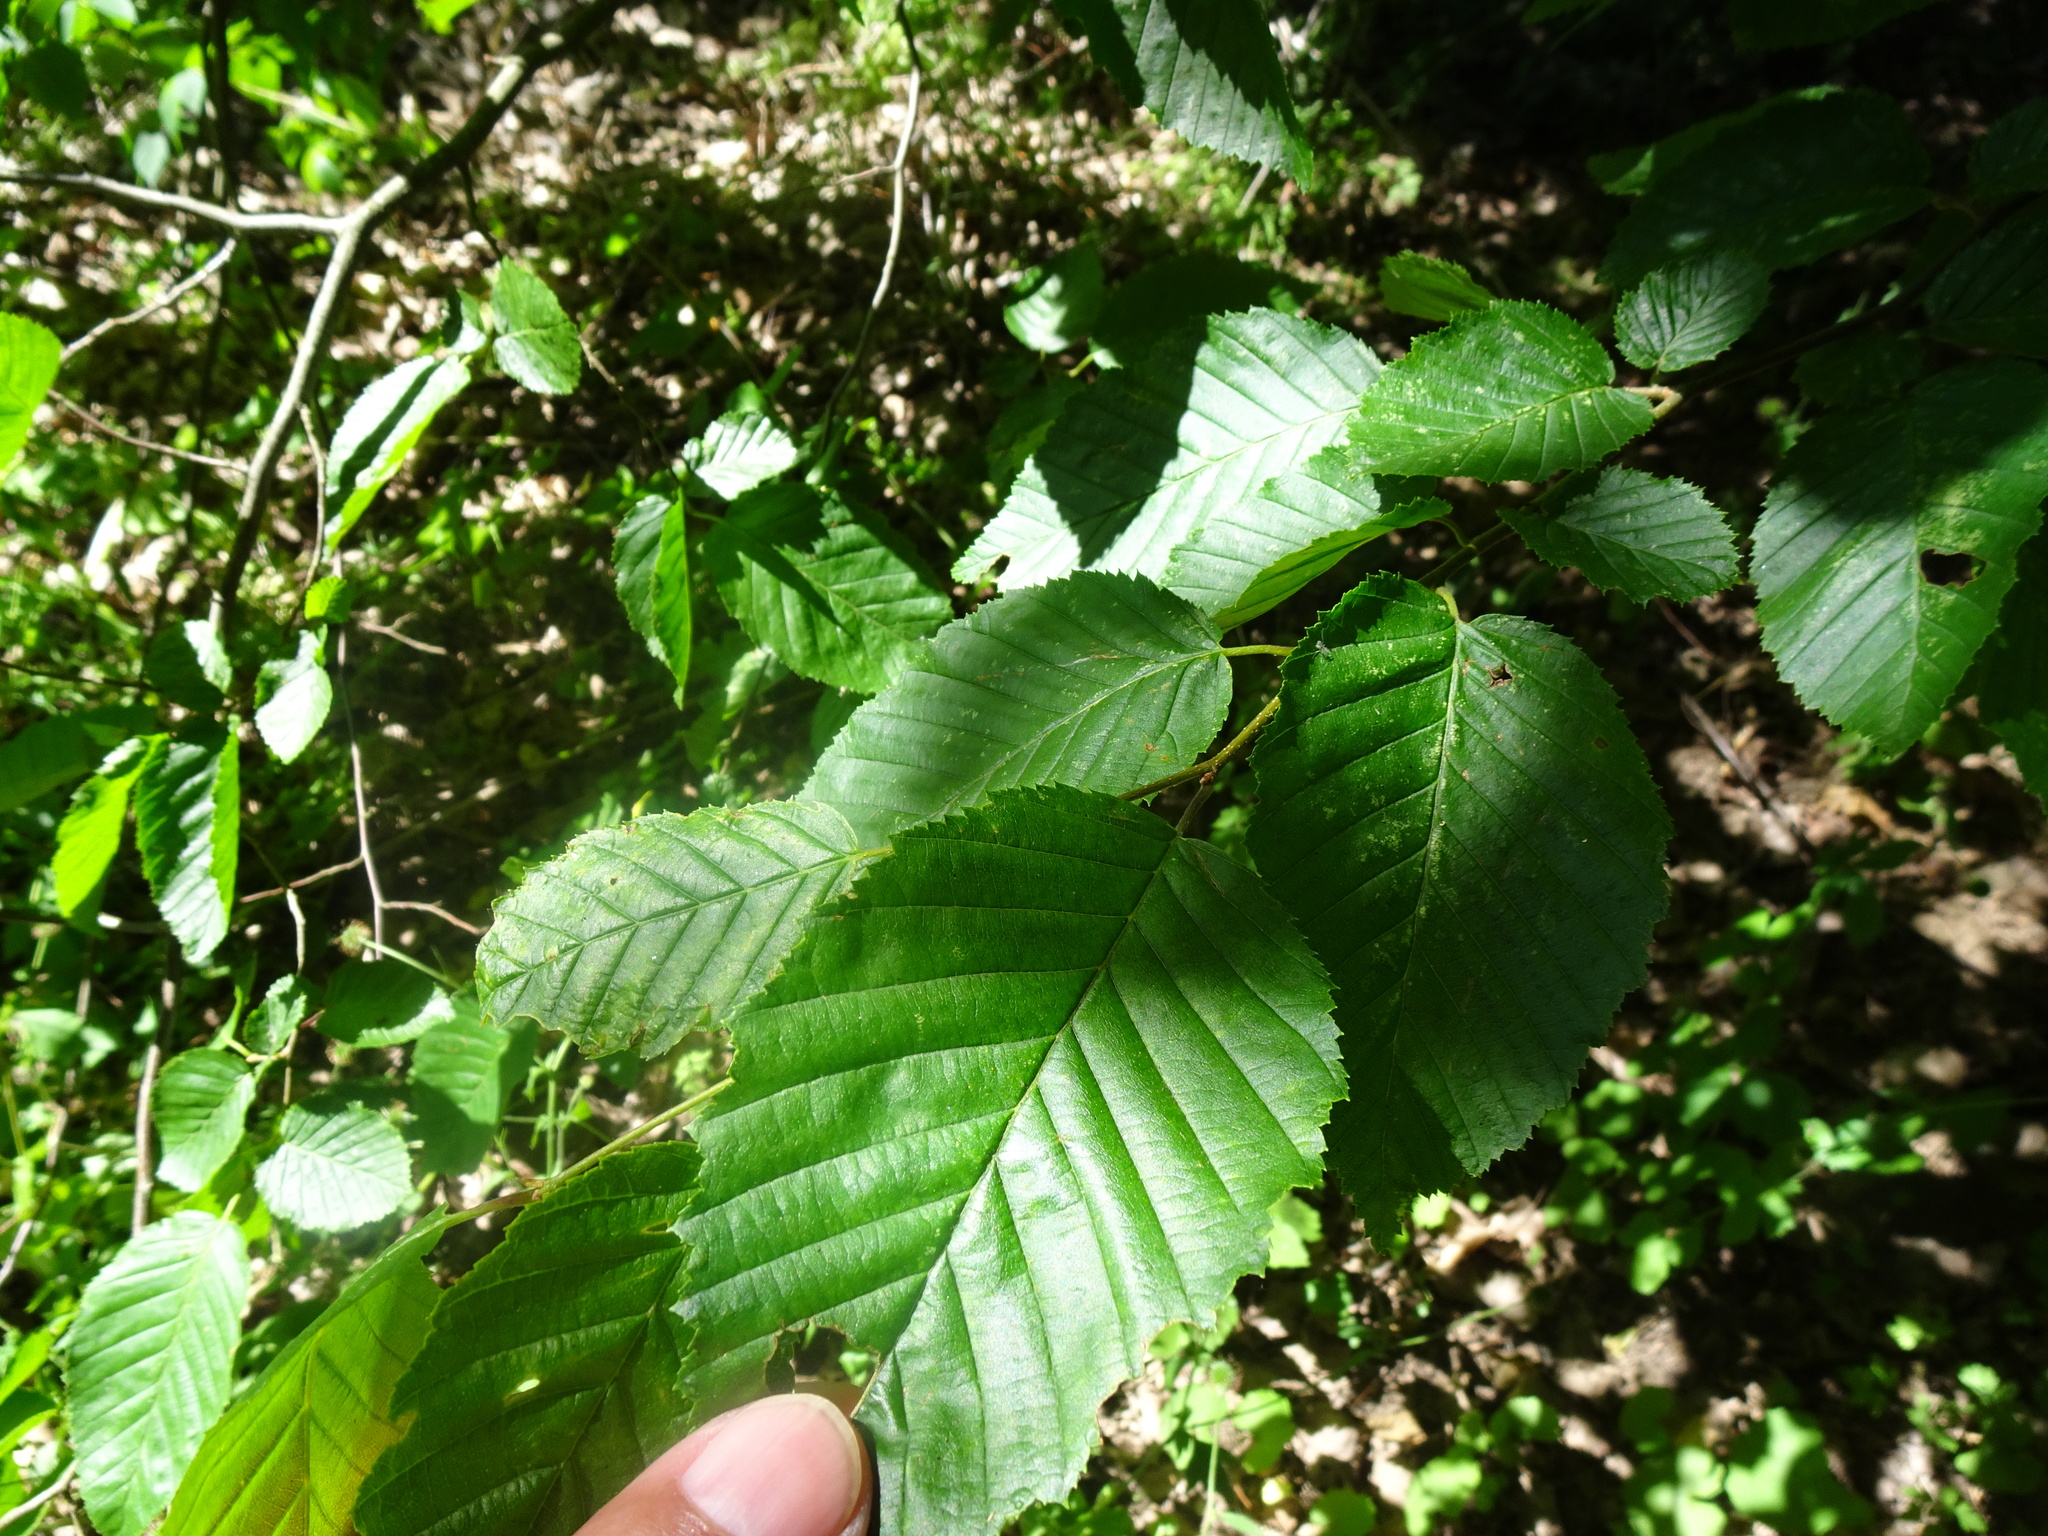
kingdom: Plantae
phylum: Tracheophyta
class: Magnoliopsida
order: Fagales
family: Betulaceae
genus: Carpinus
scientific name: Carpinus betulus
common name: Hornbeam
